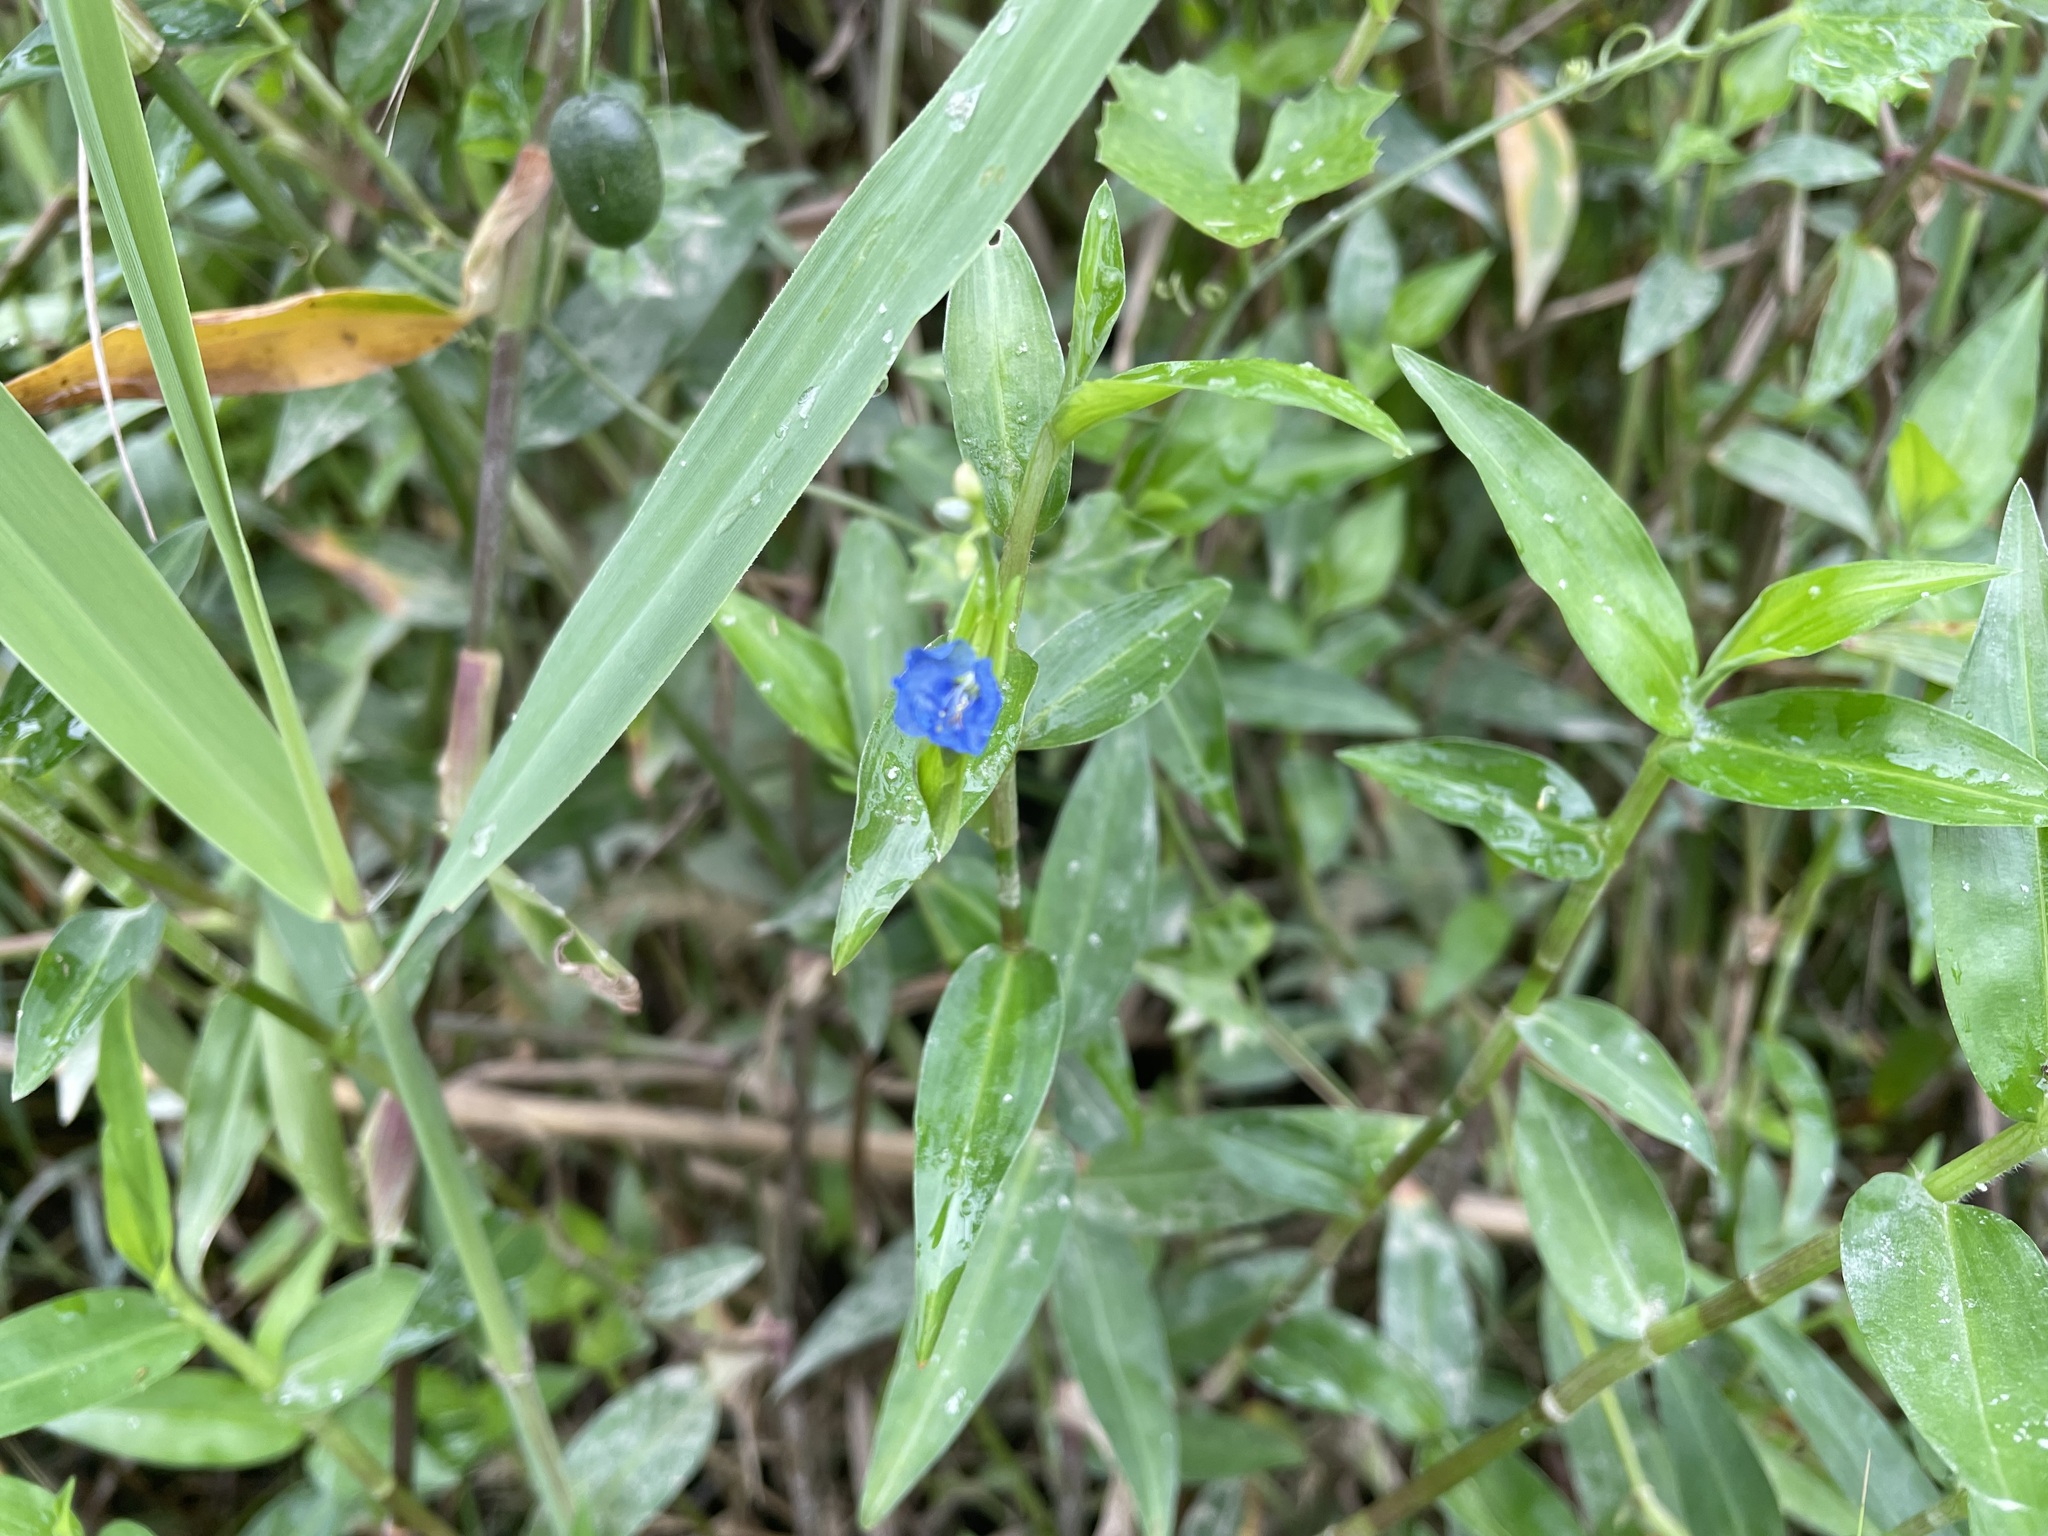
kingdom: Plantae
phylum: Tracheophyta
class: Liliopsida
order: Commelinales
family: Commelinaceae
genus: Commelina
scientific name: Commelina diffusa
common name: Climbing dayflower
